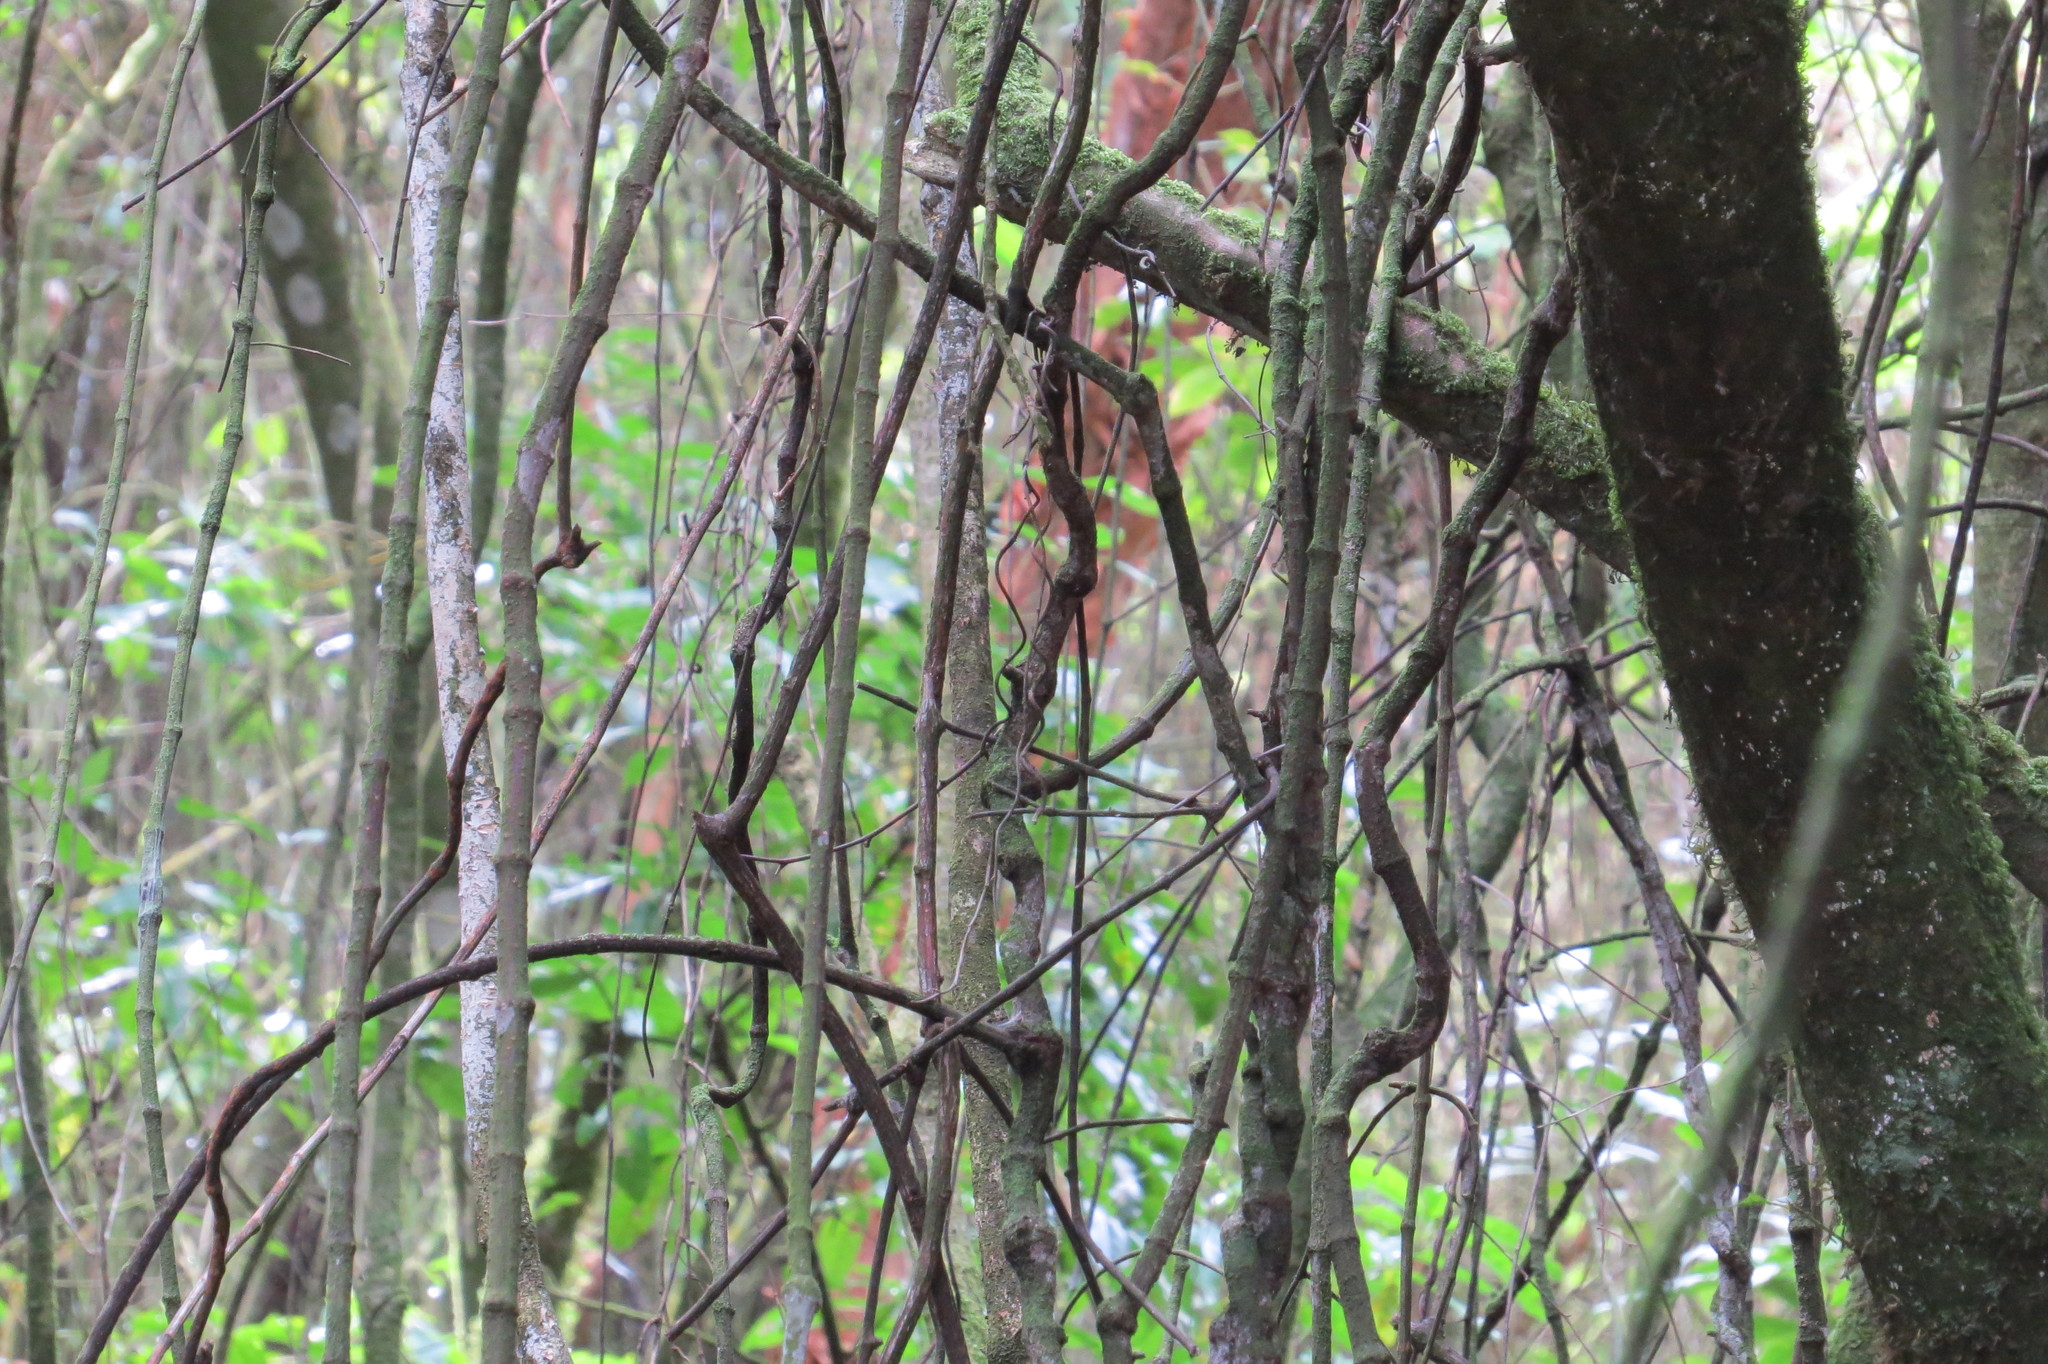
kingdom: Plantae
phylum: Tracheophyta
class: Liliopsida
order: Liliales
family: Ripogonaceae
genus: Ripogonum
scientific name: Ripogonum scandens
